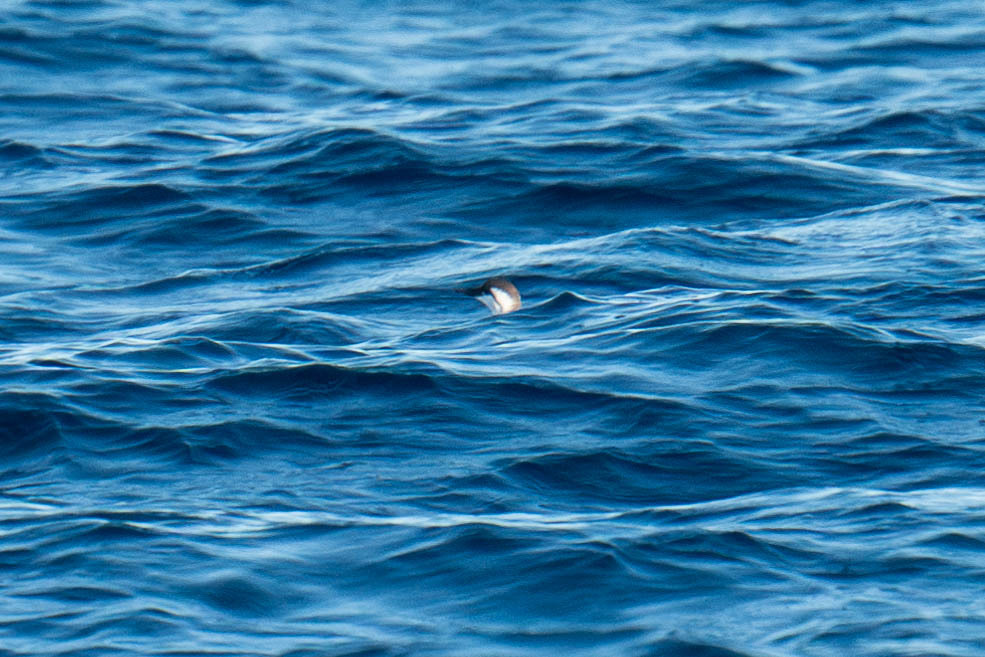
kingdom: Animalia
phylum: Chordata
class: Aves
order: Charadriiformes
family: Alcidae
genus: Uria
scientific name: Uria aalge
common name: Common murre
